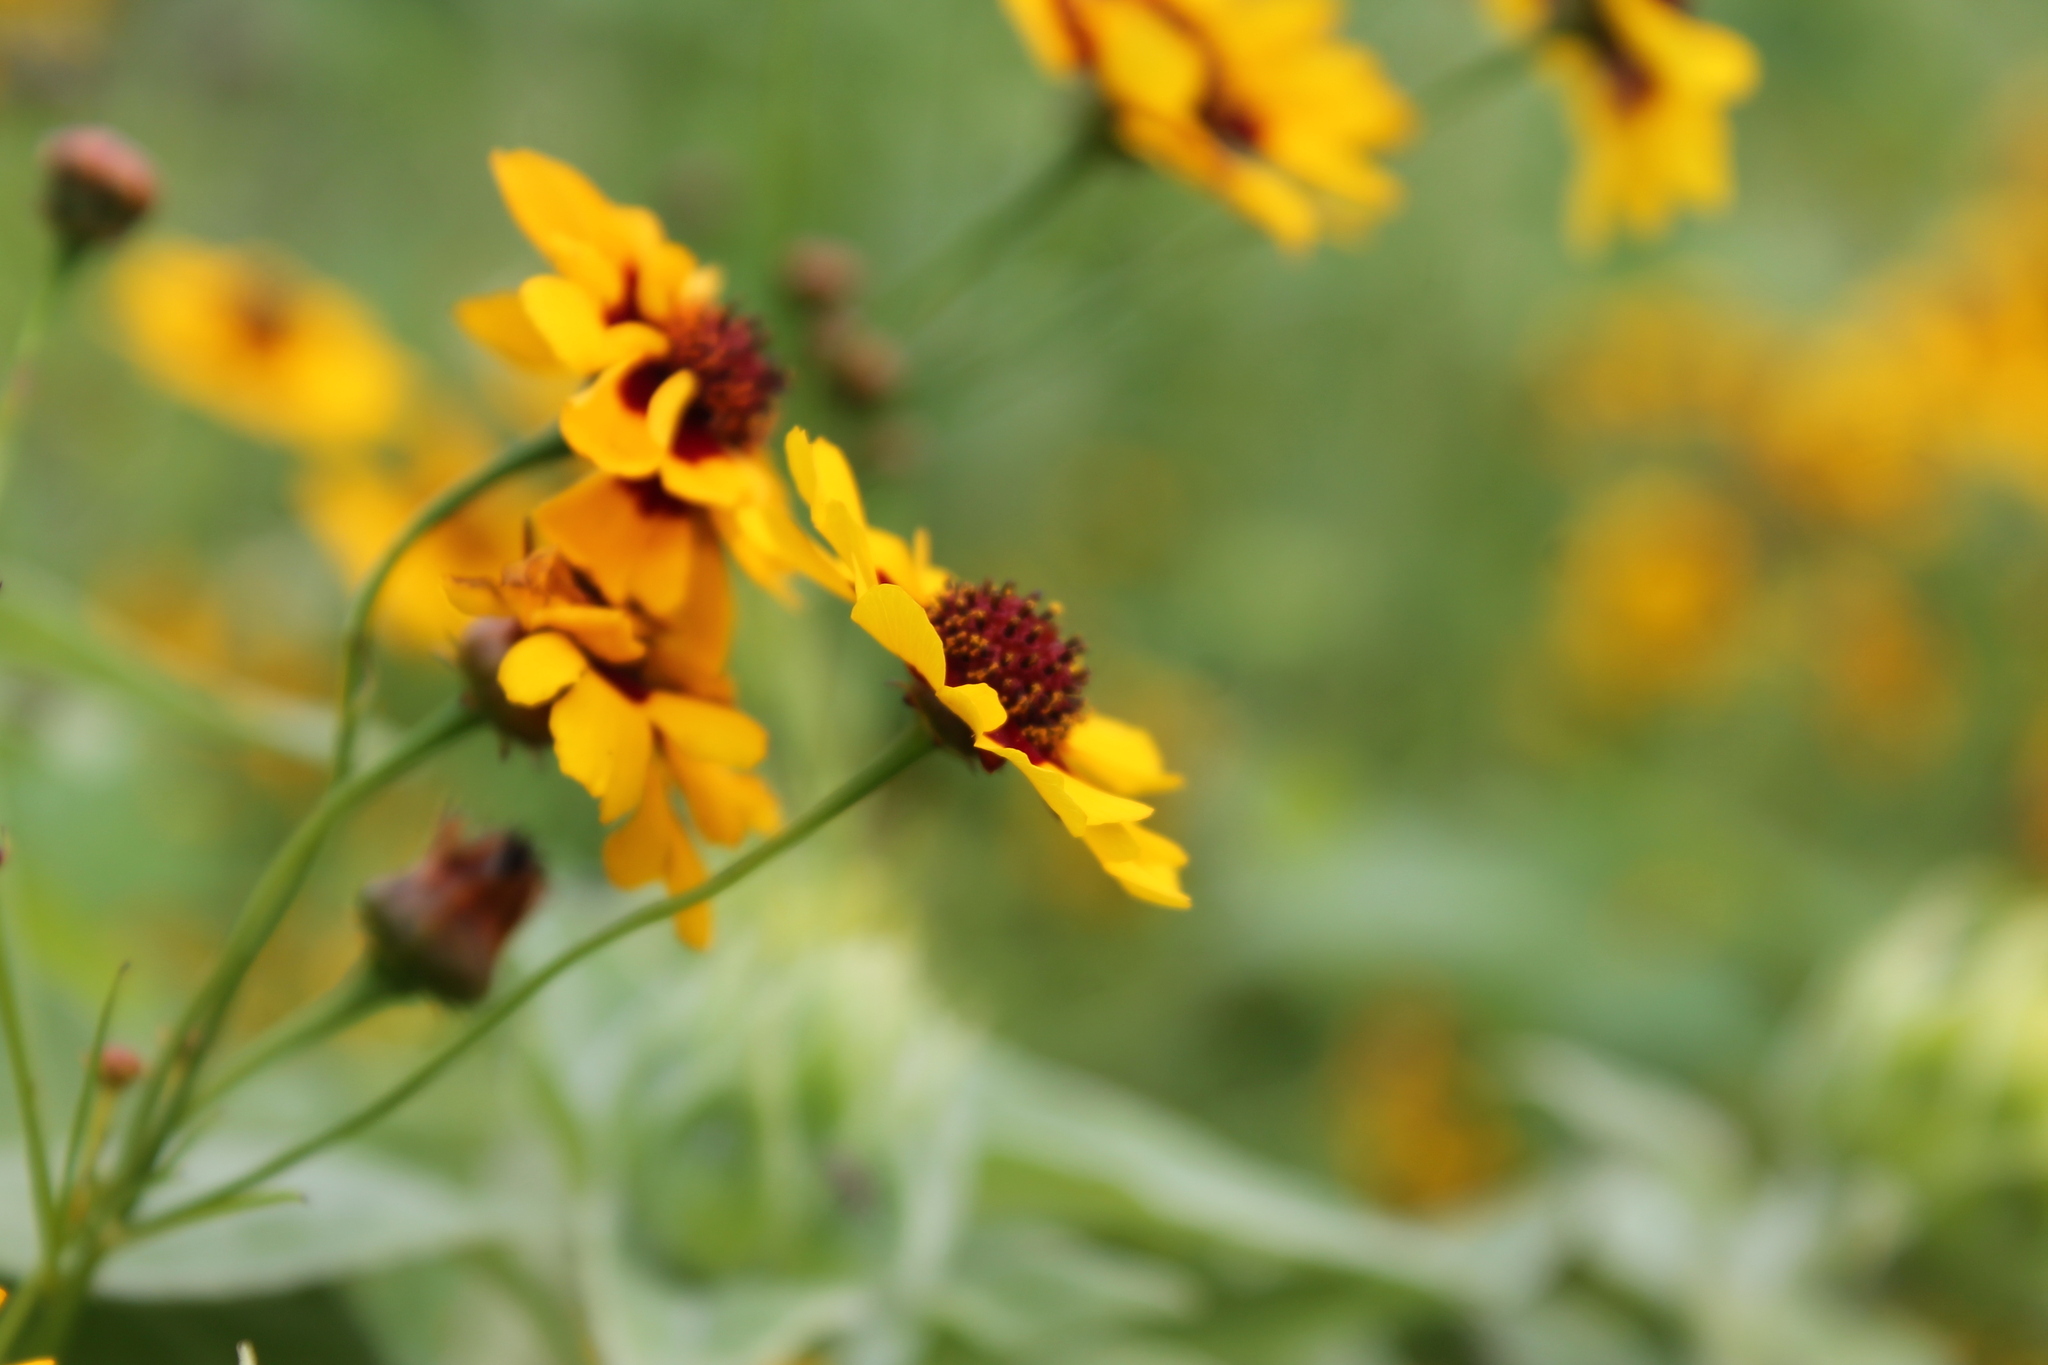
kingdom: Plantae
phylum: Tracheophyta
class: Magnoliopsida
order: Asterales
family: Asteraceae
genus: Coreopsis
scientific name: Coreopsis tinctoria
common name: Garden tickseed
